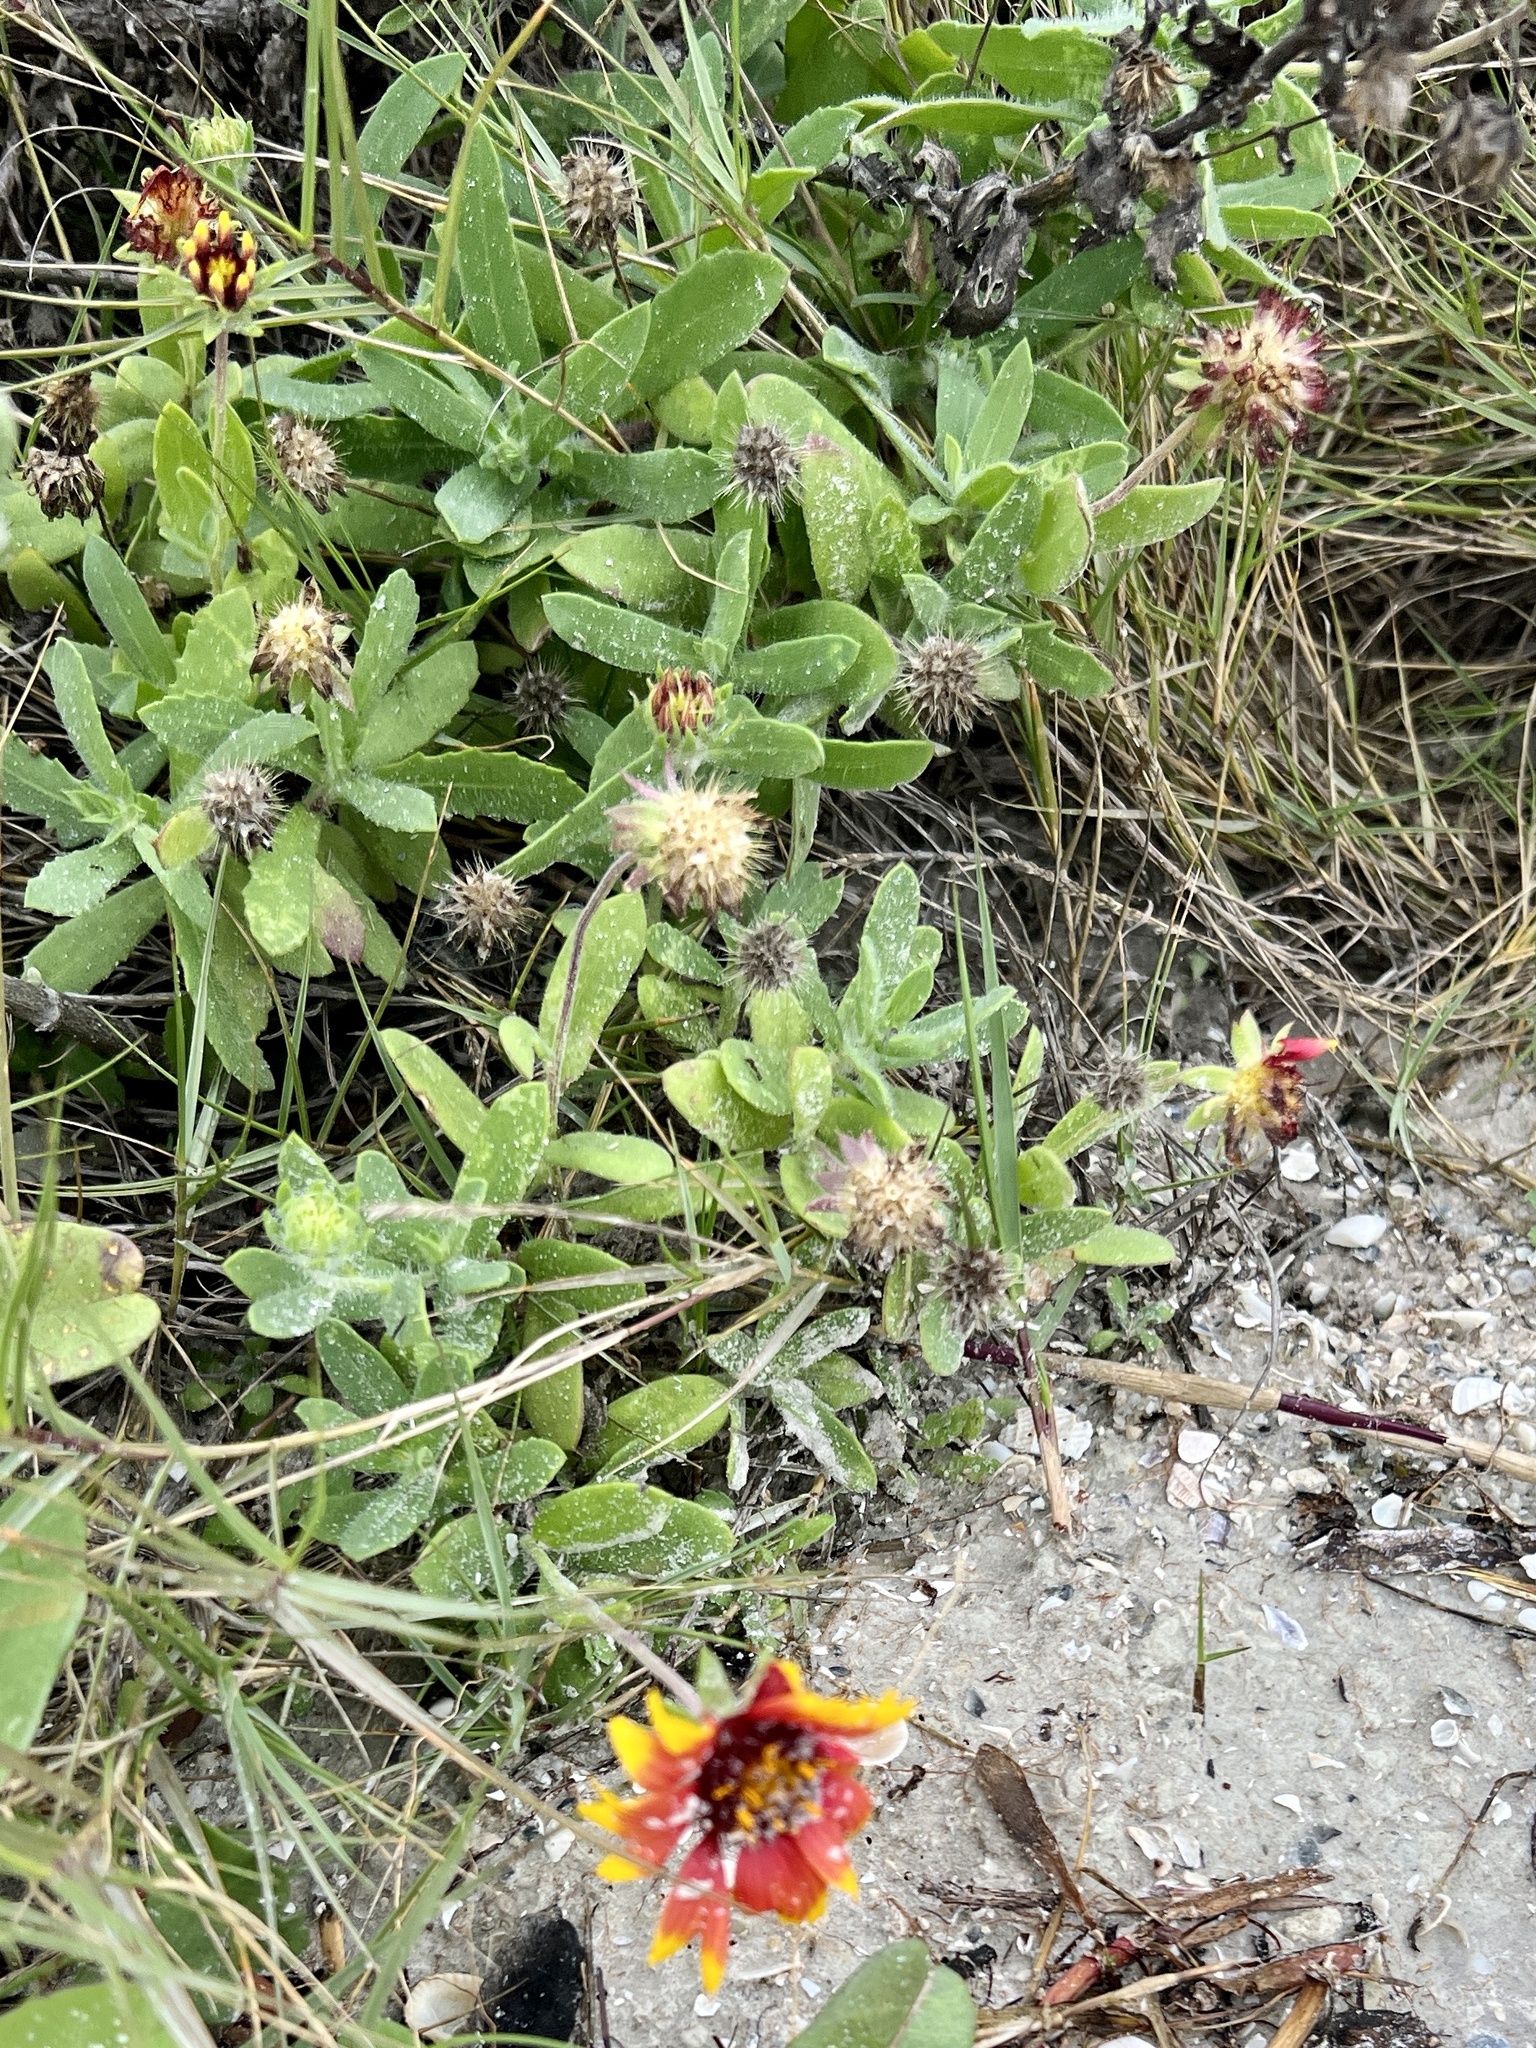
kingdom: Plantae
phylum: Tracheophyta
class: Magnoliopsida
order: Asterales
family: Asteraceae
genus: Gaillardia
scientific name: Gaillardia pulchella
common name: Firewheel
